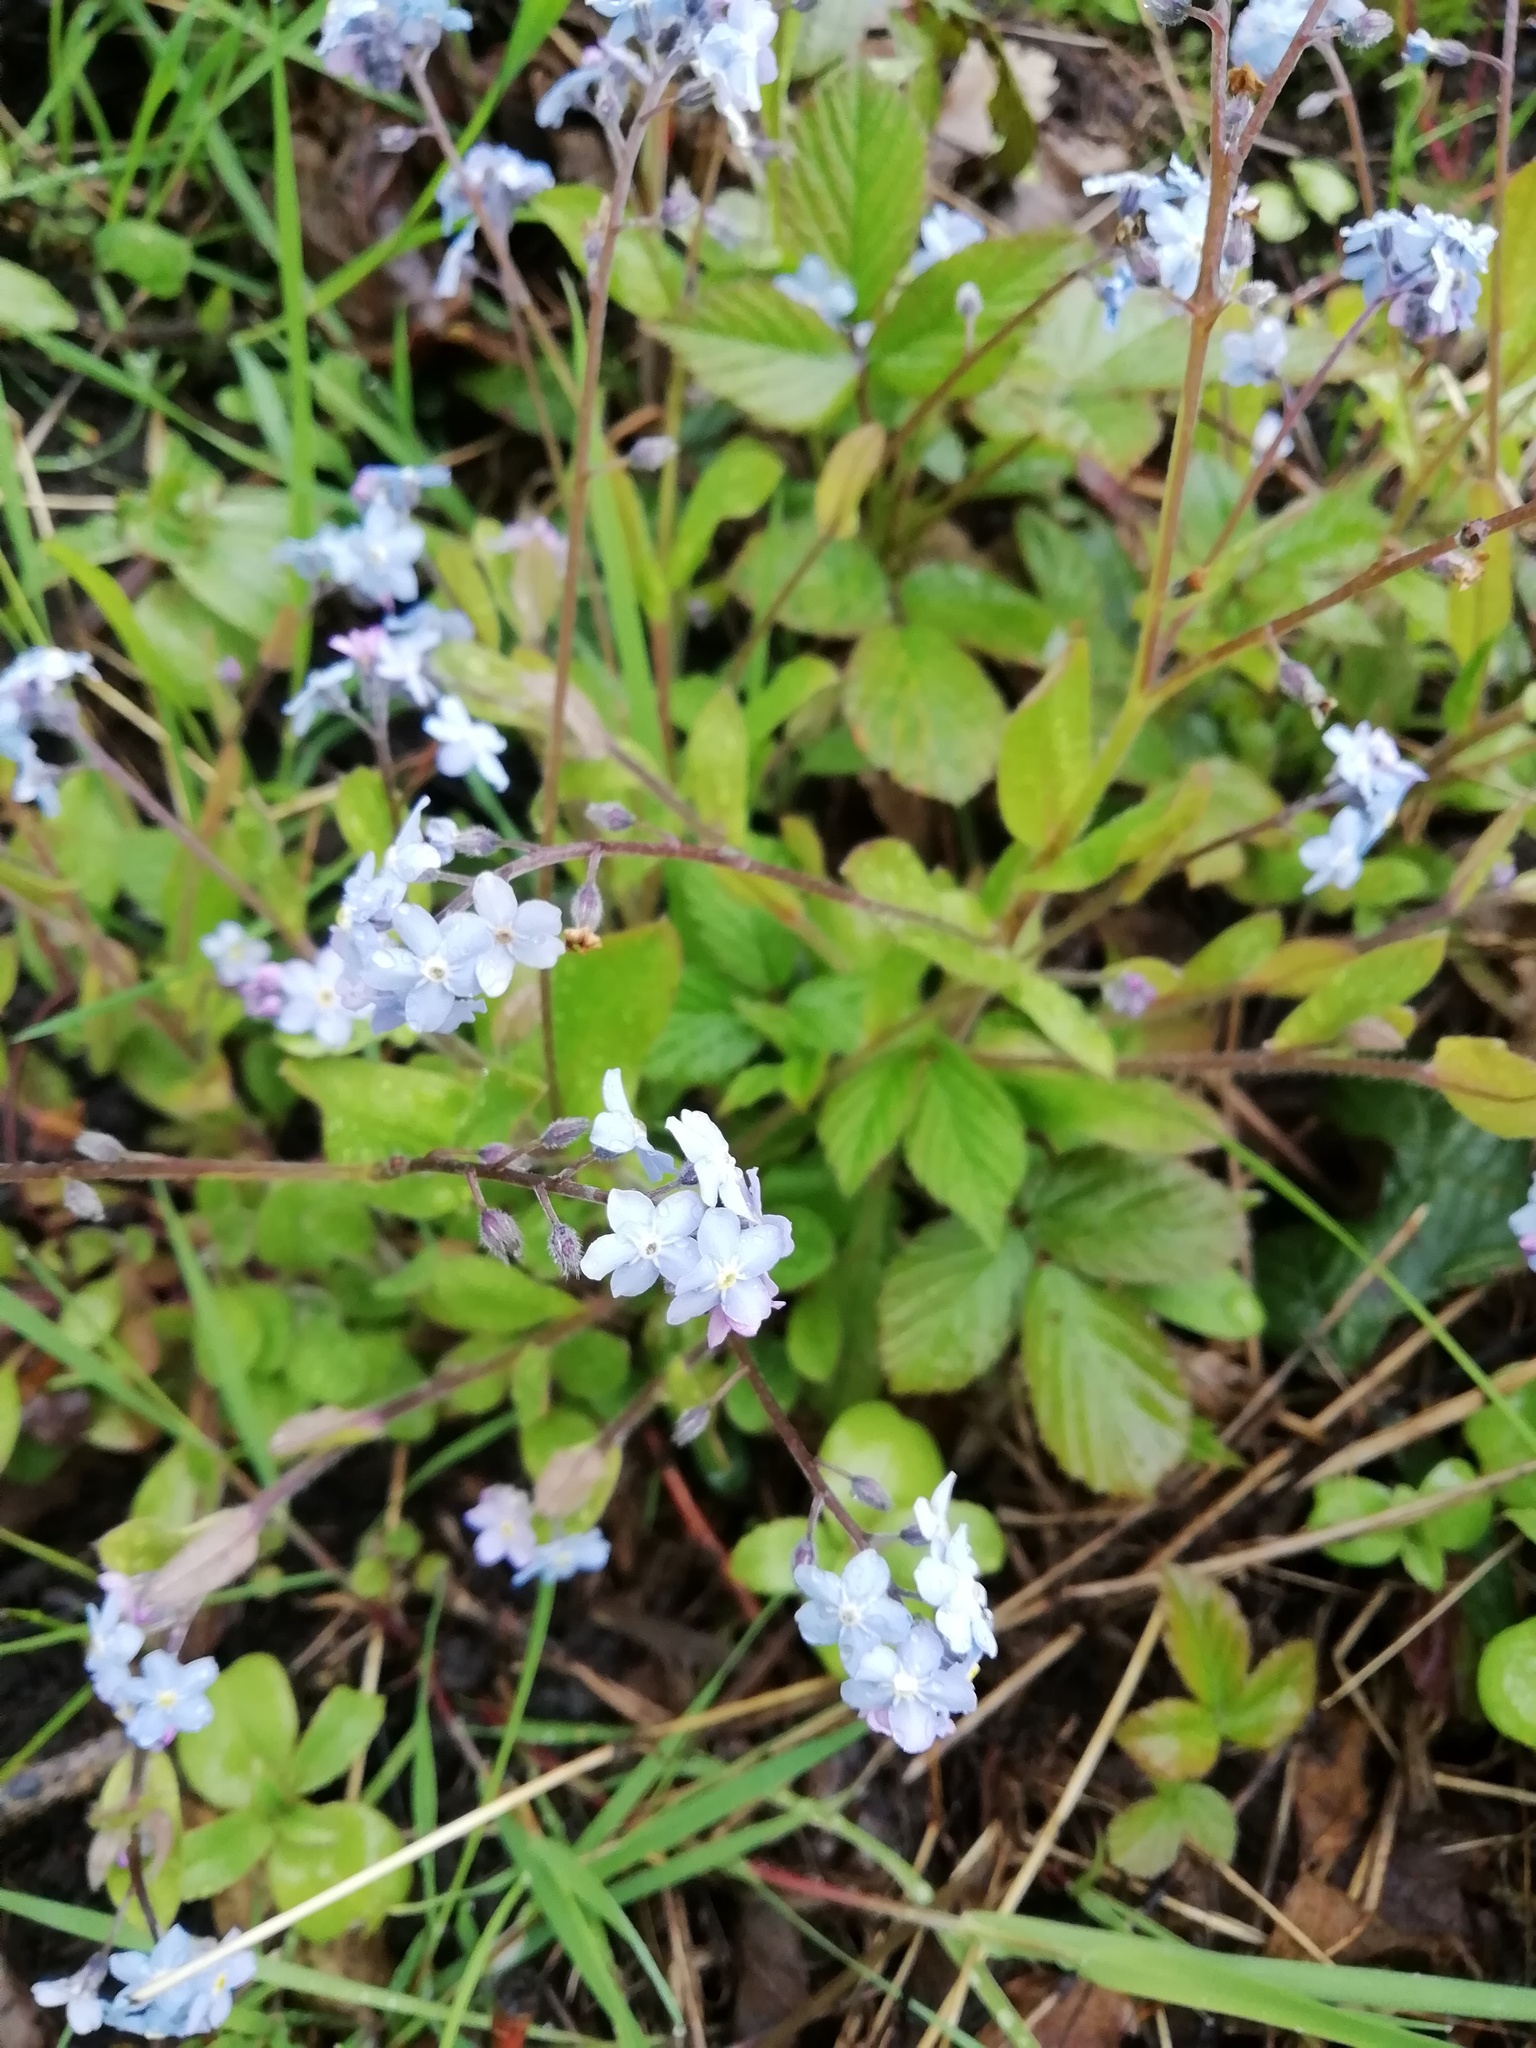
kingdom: Plantae
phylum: Tracheophyta
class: Magnoliopsida
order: Boraginales
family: Boraginaceae
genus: Myosotis
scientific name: Myosotis sylvatica
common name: Wood forget-me-not
